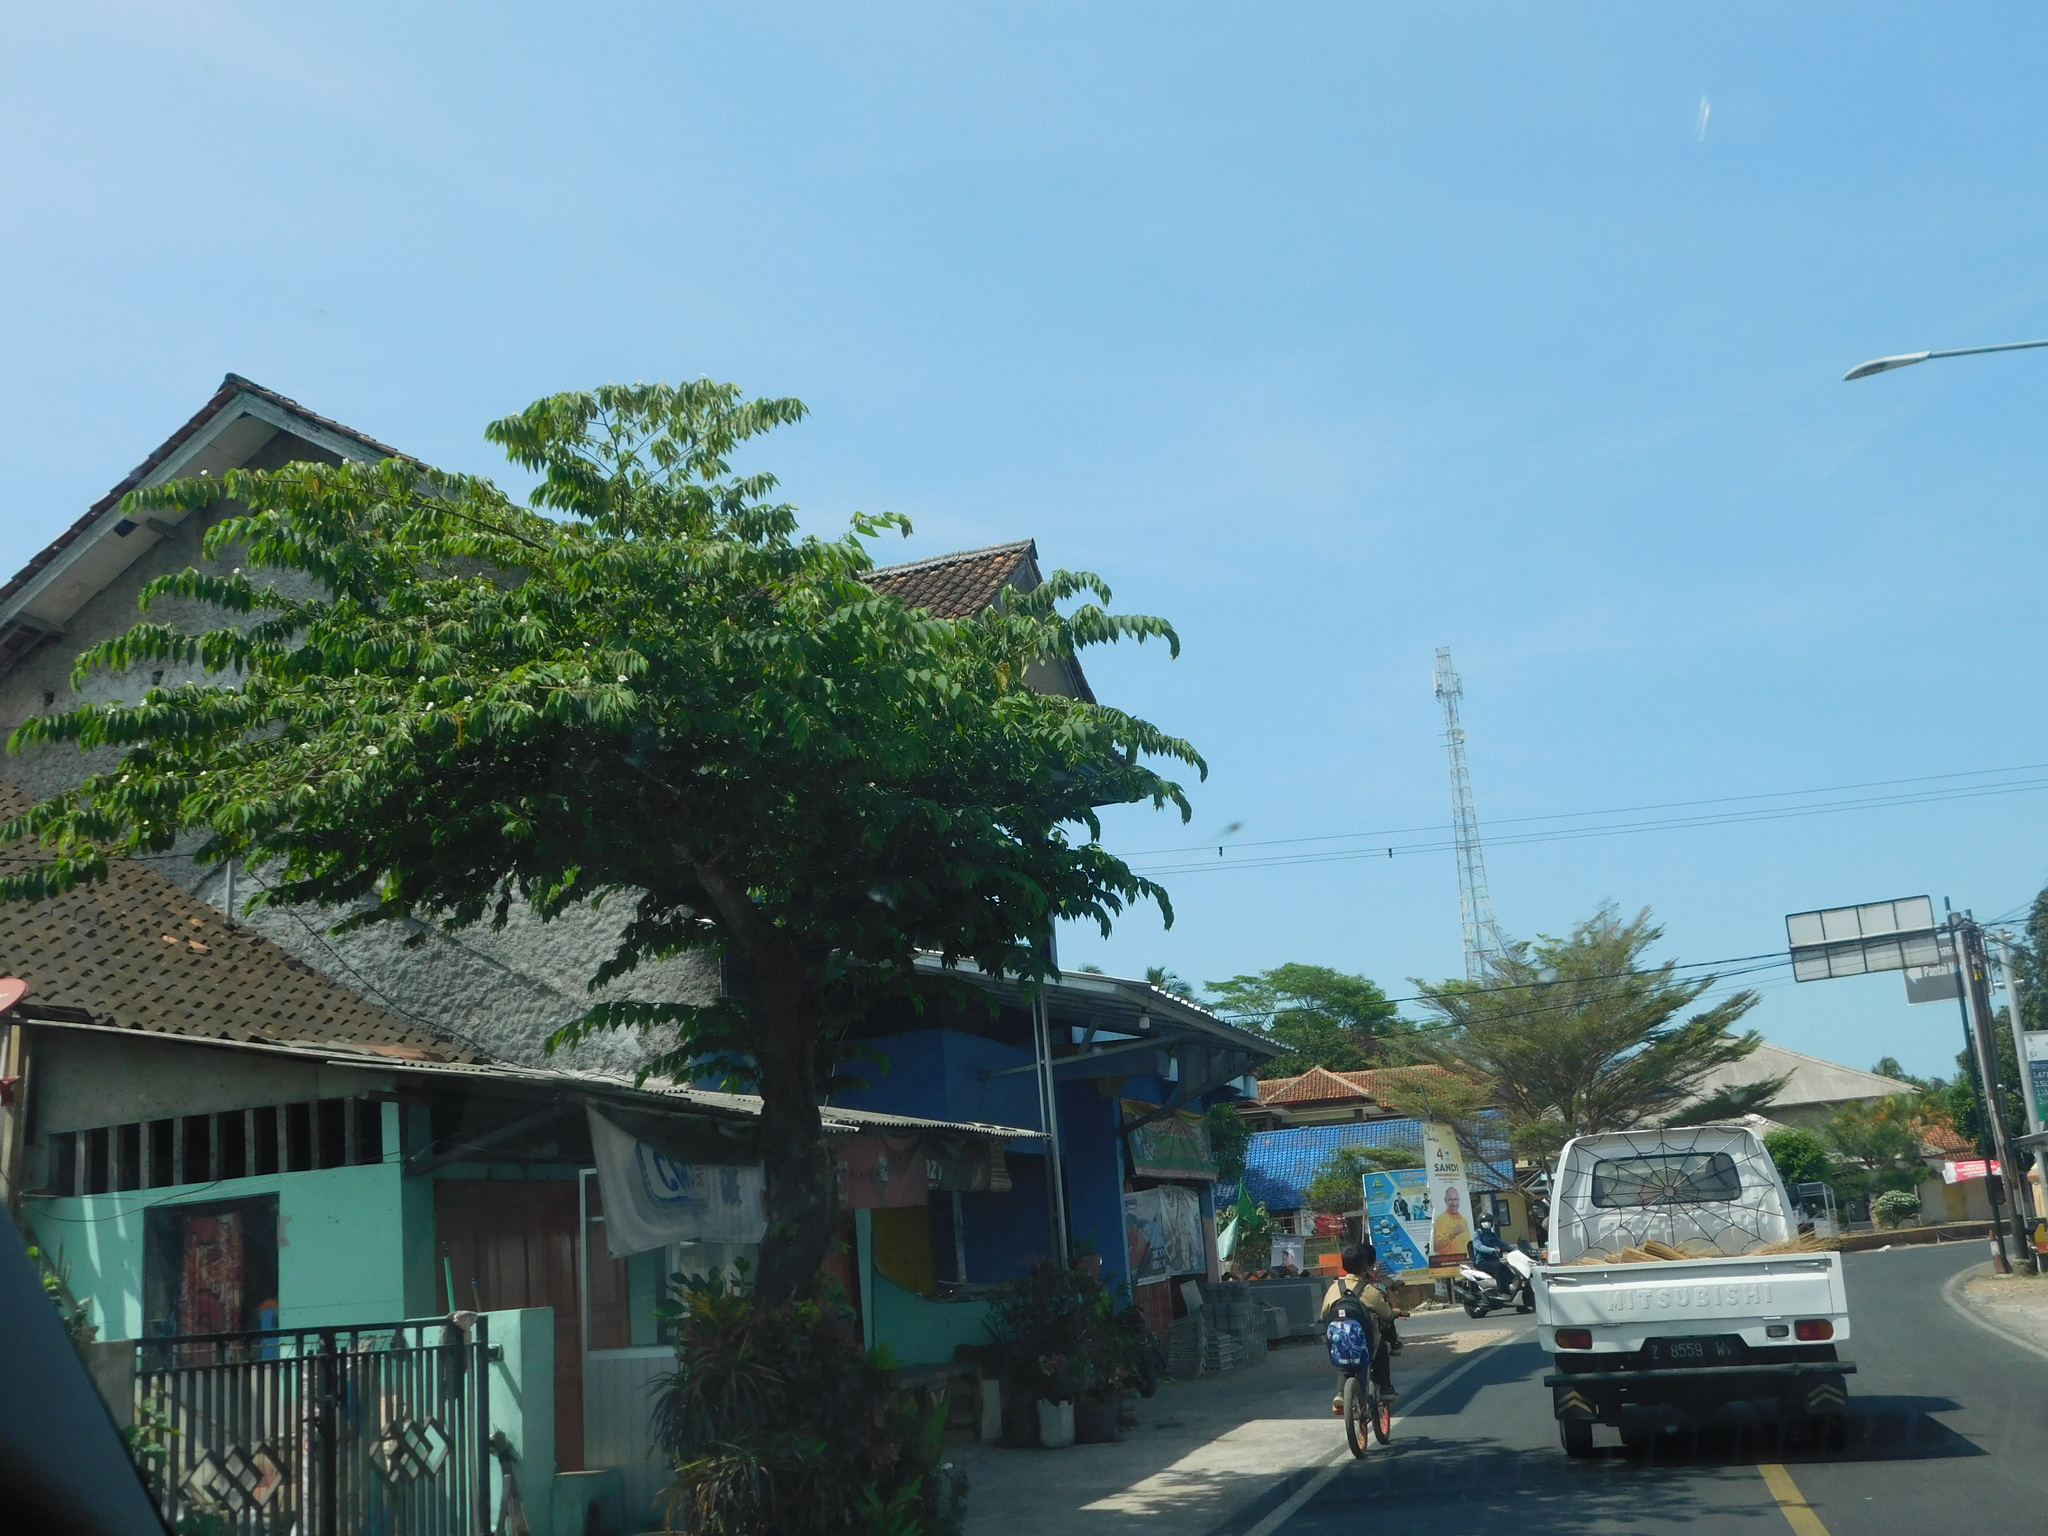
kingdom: Plantae
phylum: Tracheophyta
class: Magnoliopsida
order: Malvales
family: Muntingiaceae
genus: Muntingia
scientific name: Muntingia calabura
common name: Strawberrytree
